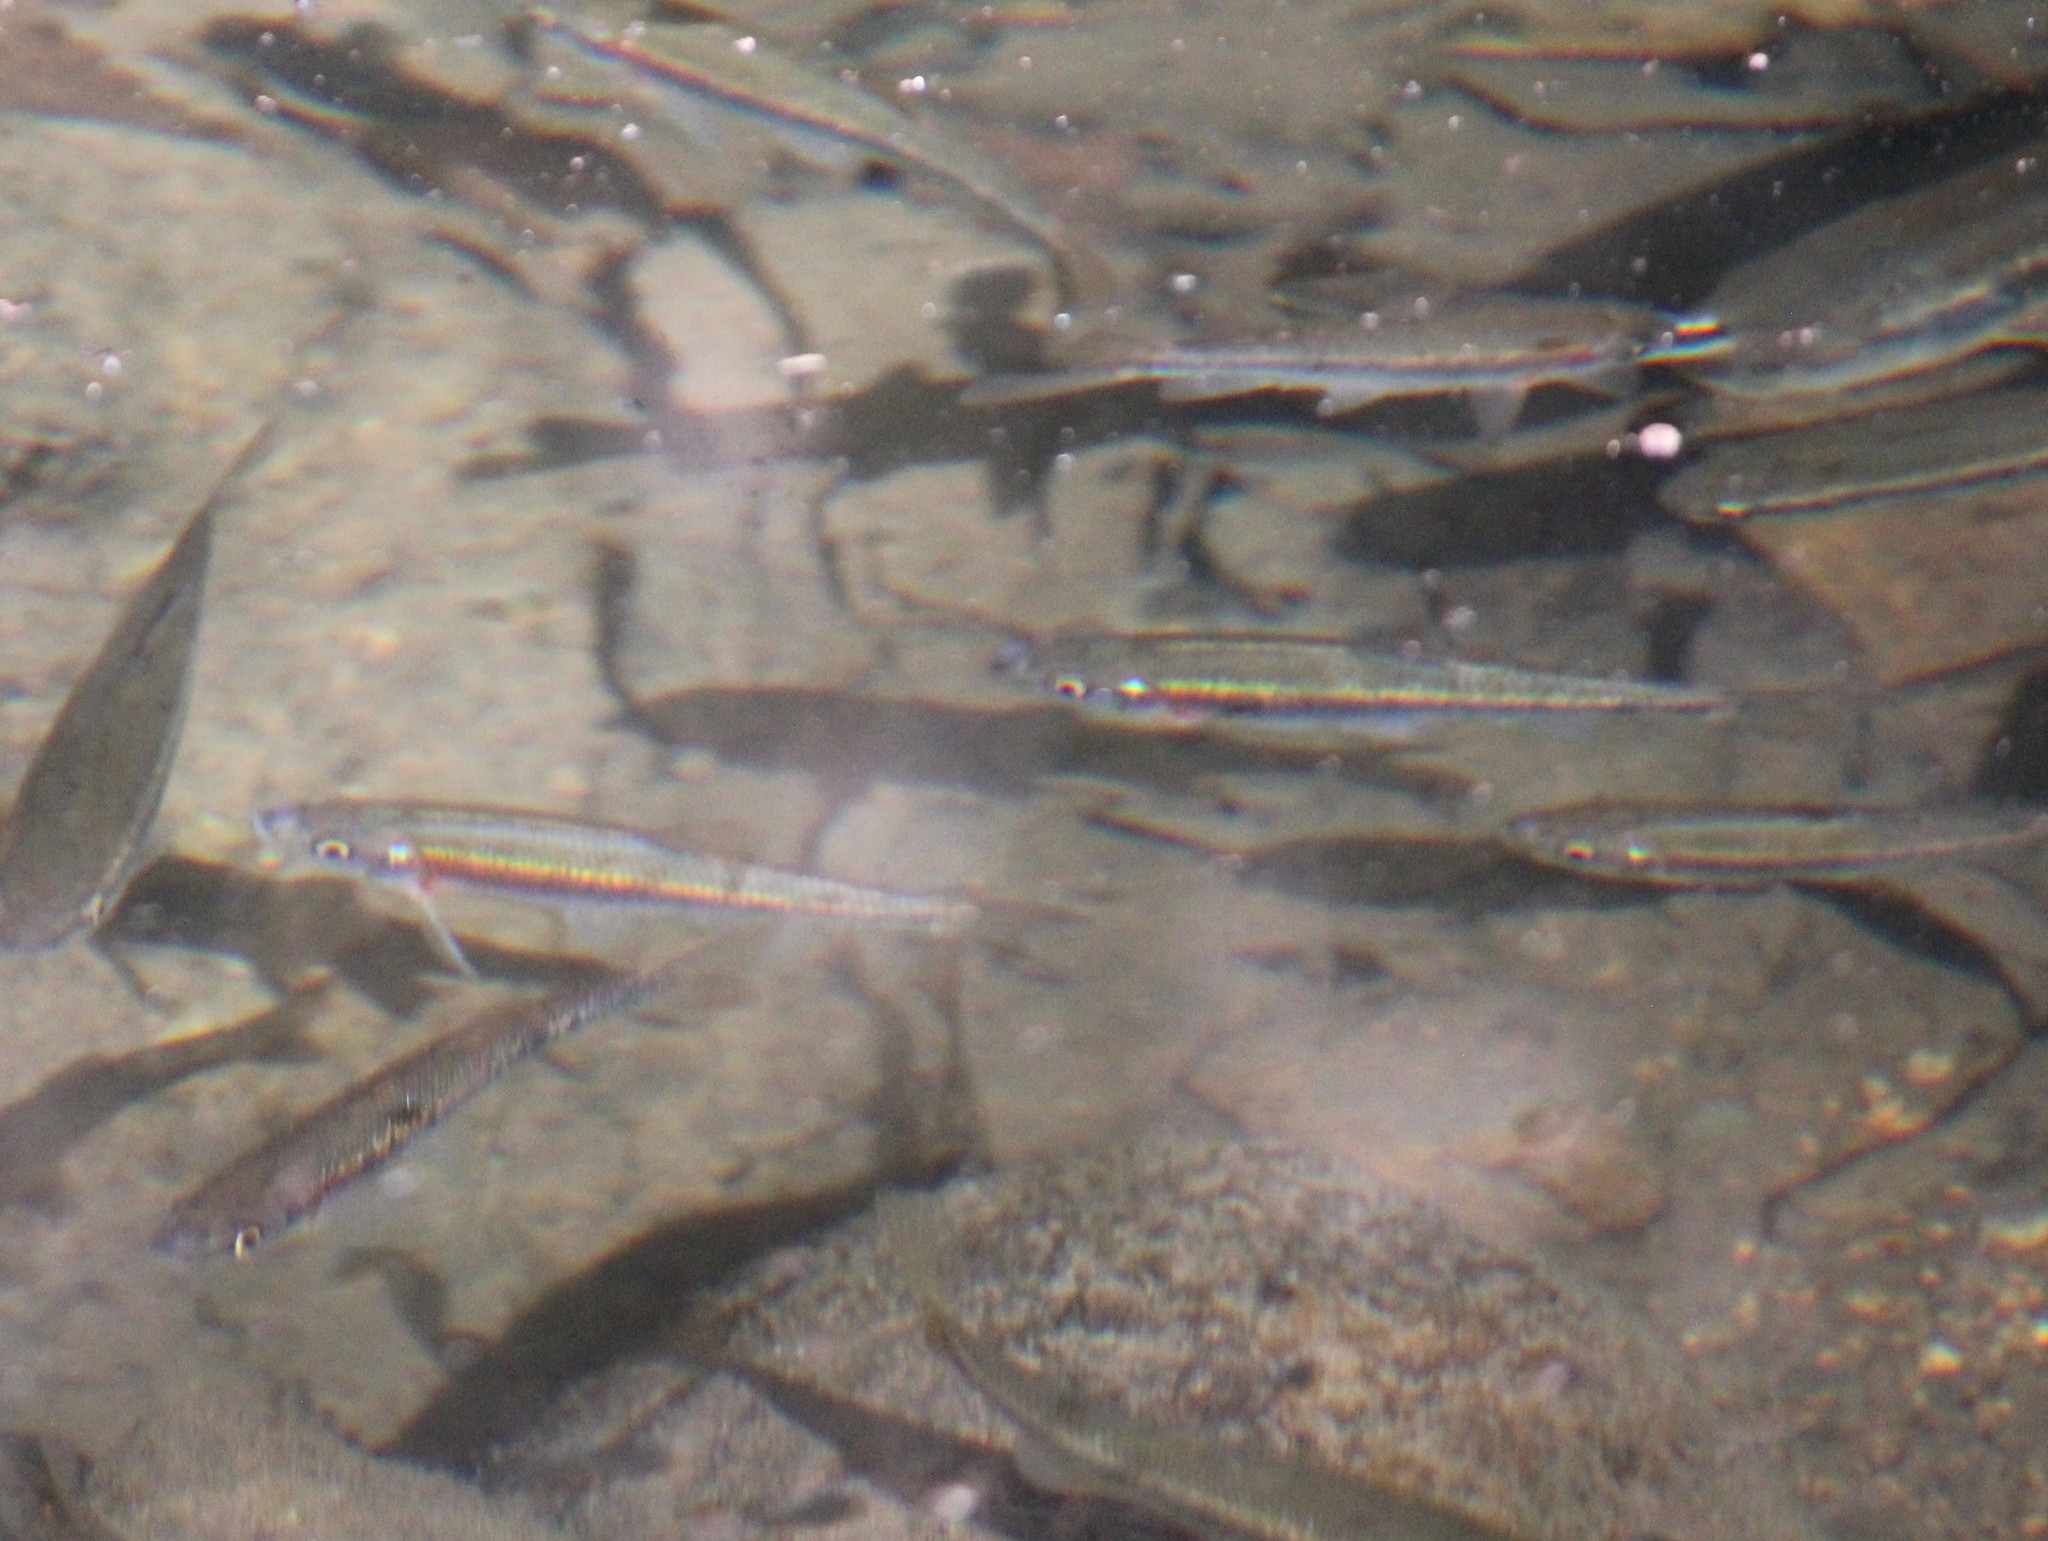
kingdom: Animalia
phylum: Chordata
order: Cypriniformes
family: Cyprinidae
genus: Clinostomus
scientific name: Clinostomus funduloides
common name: Rosyside dace
